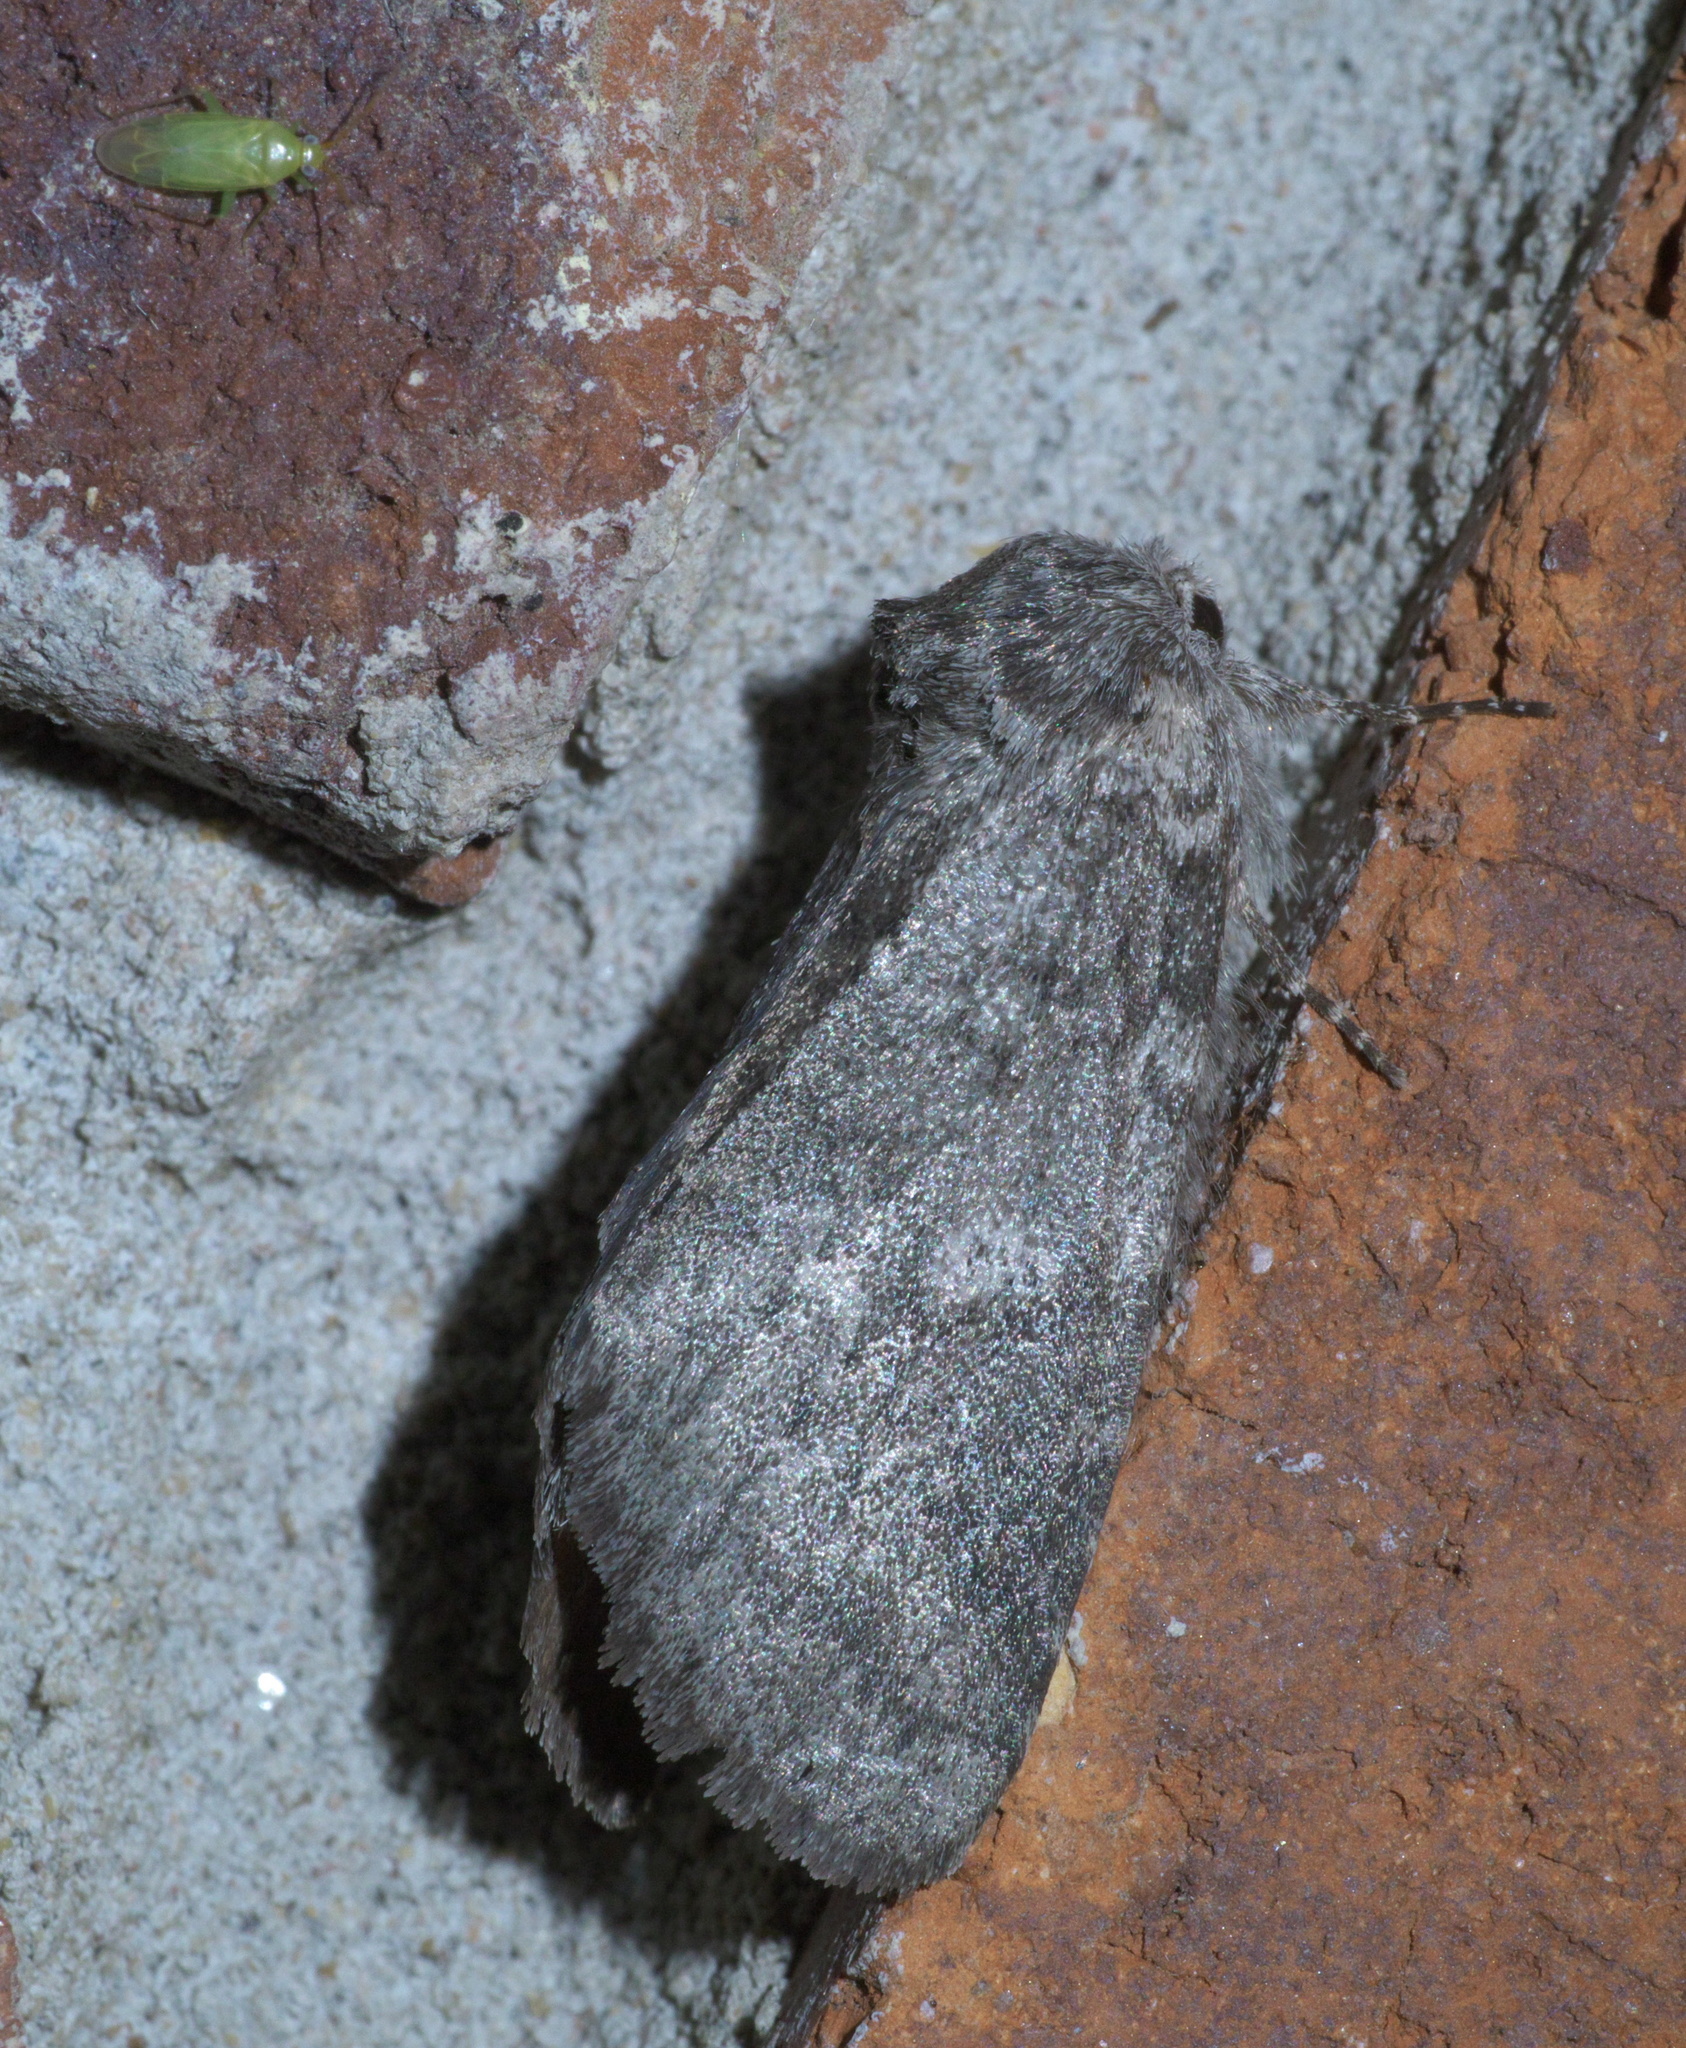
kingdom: Animalia
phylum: Arthropoda
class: Insecta
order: Lepidoptera
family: Notodontidae
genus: Lochmaeus
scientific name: Lochmaeus manteo
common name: Variable oakleaf caterpillar moth
